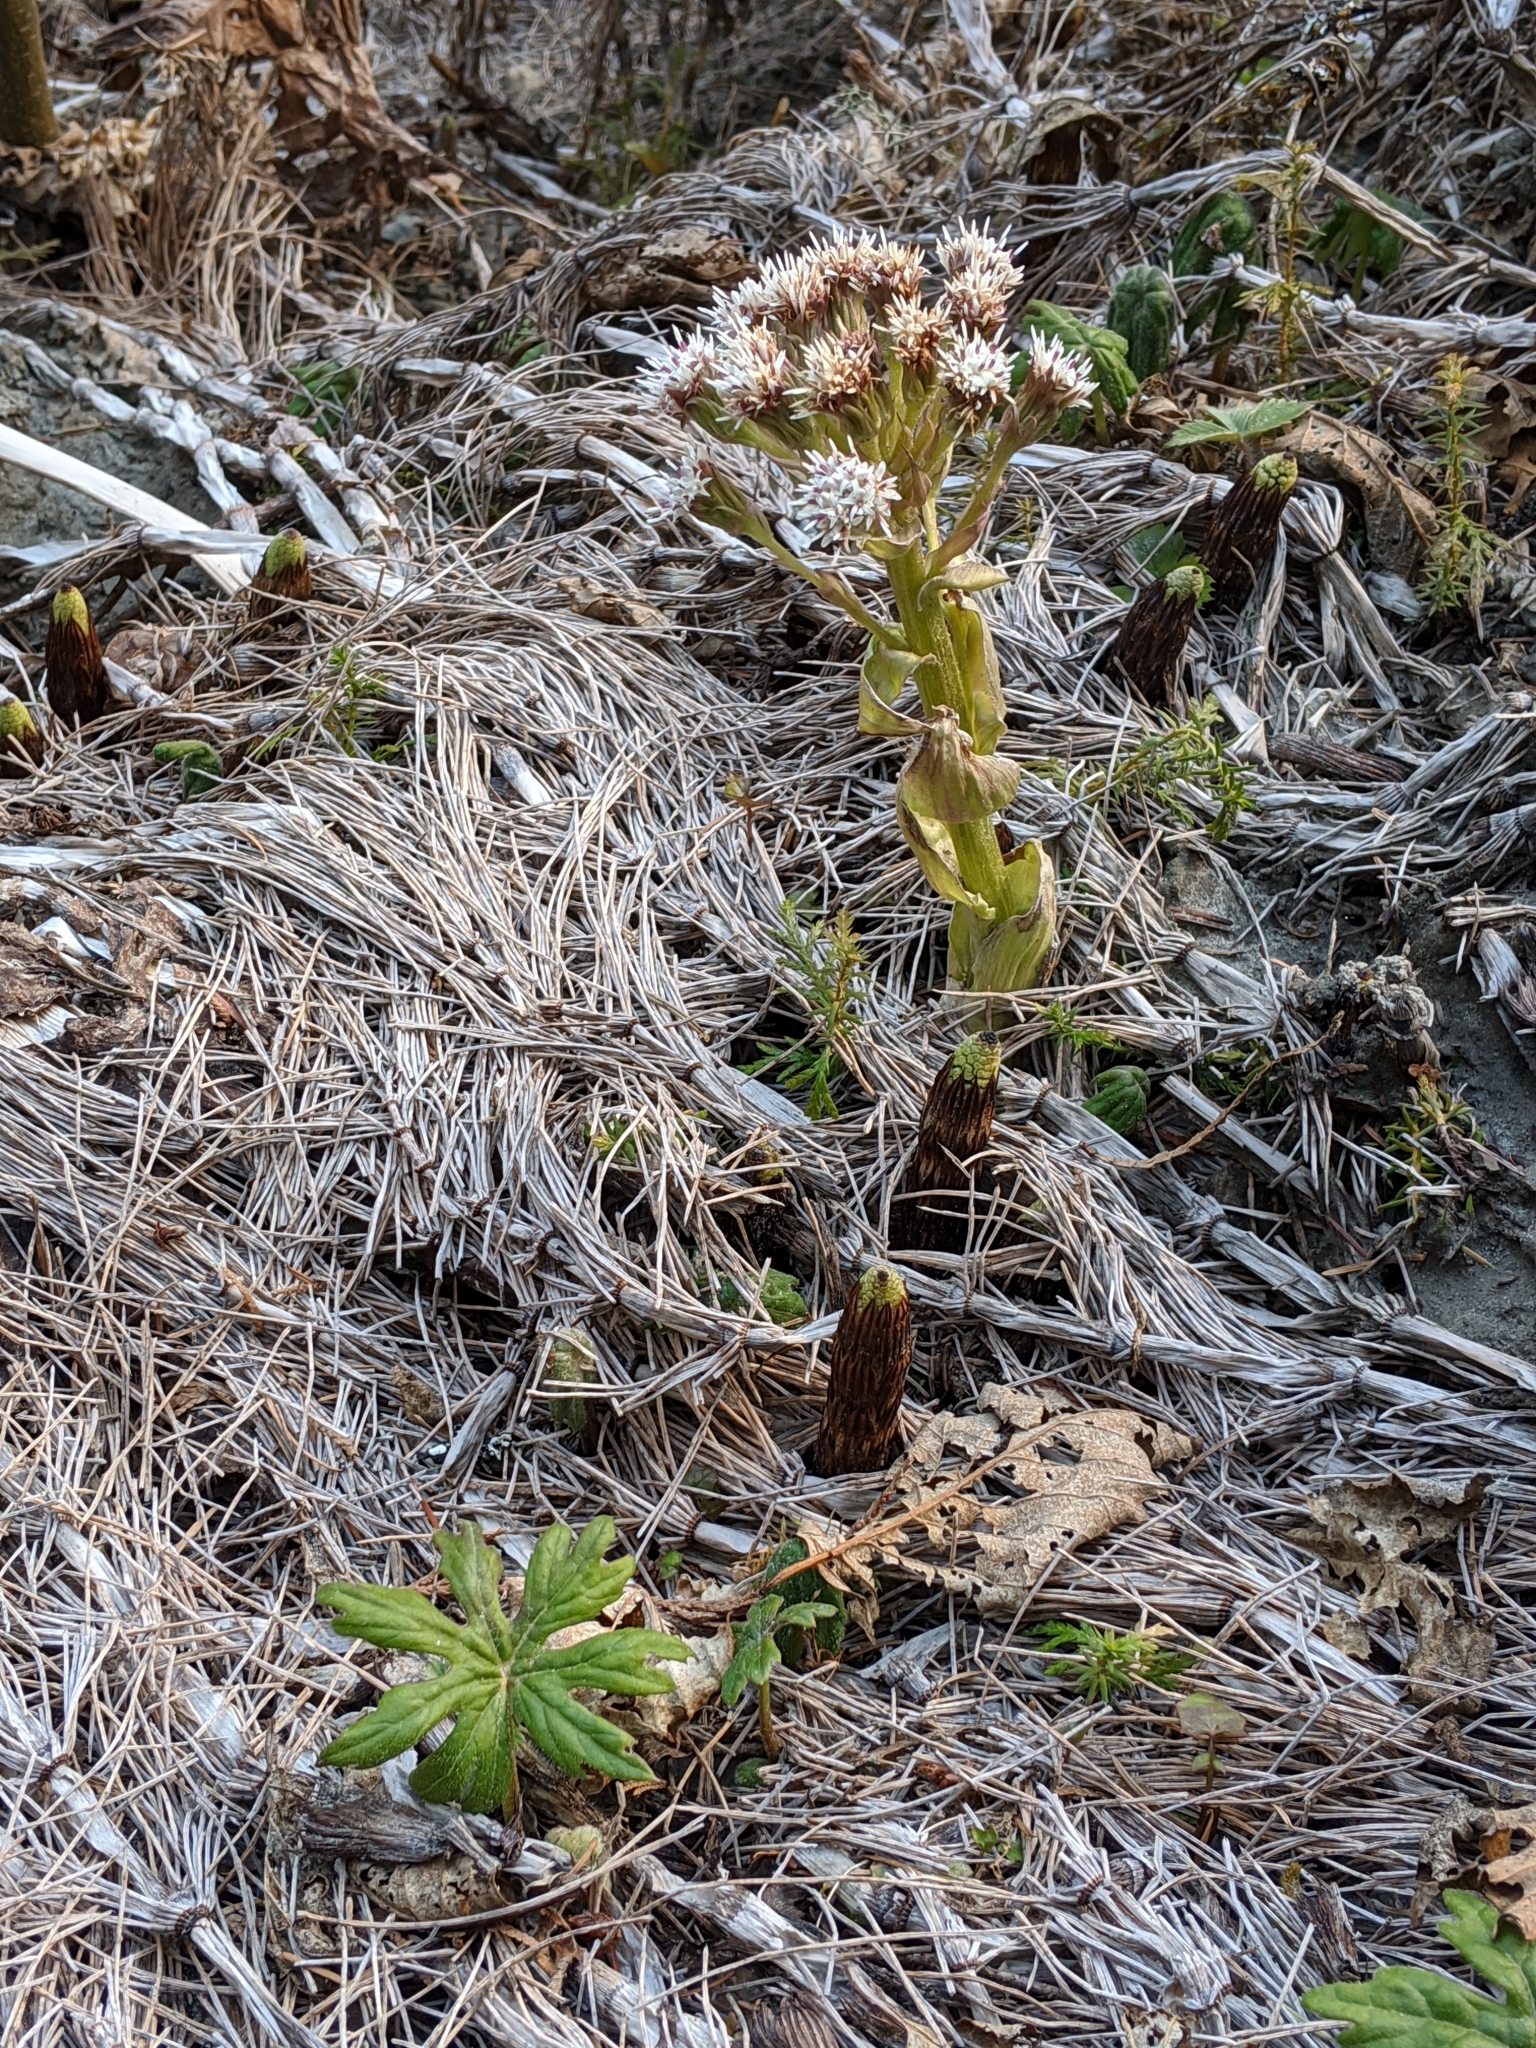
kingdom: Plantae
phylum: Tracheophyta
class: Magnoliopsida
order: Asterales
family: Asteraceae
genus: Petasites
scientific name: Petasites frigidus
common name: Arctic butterbur
